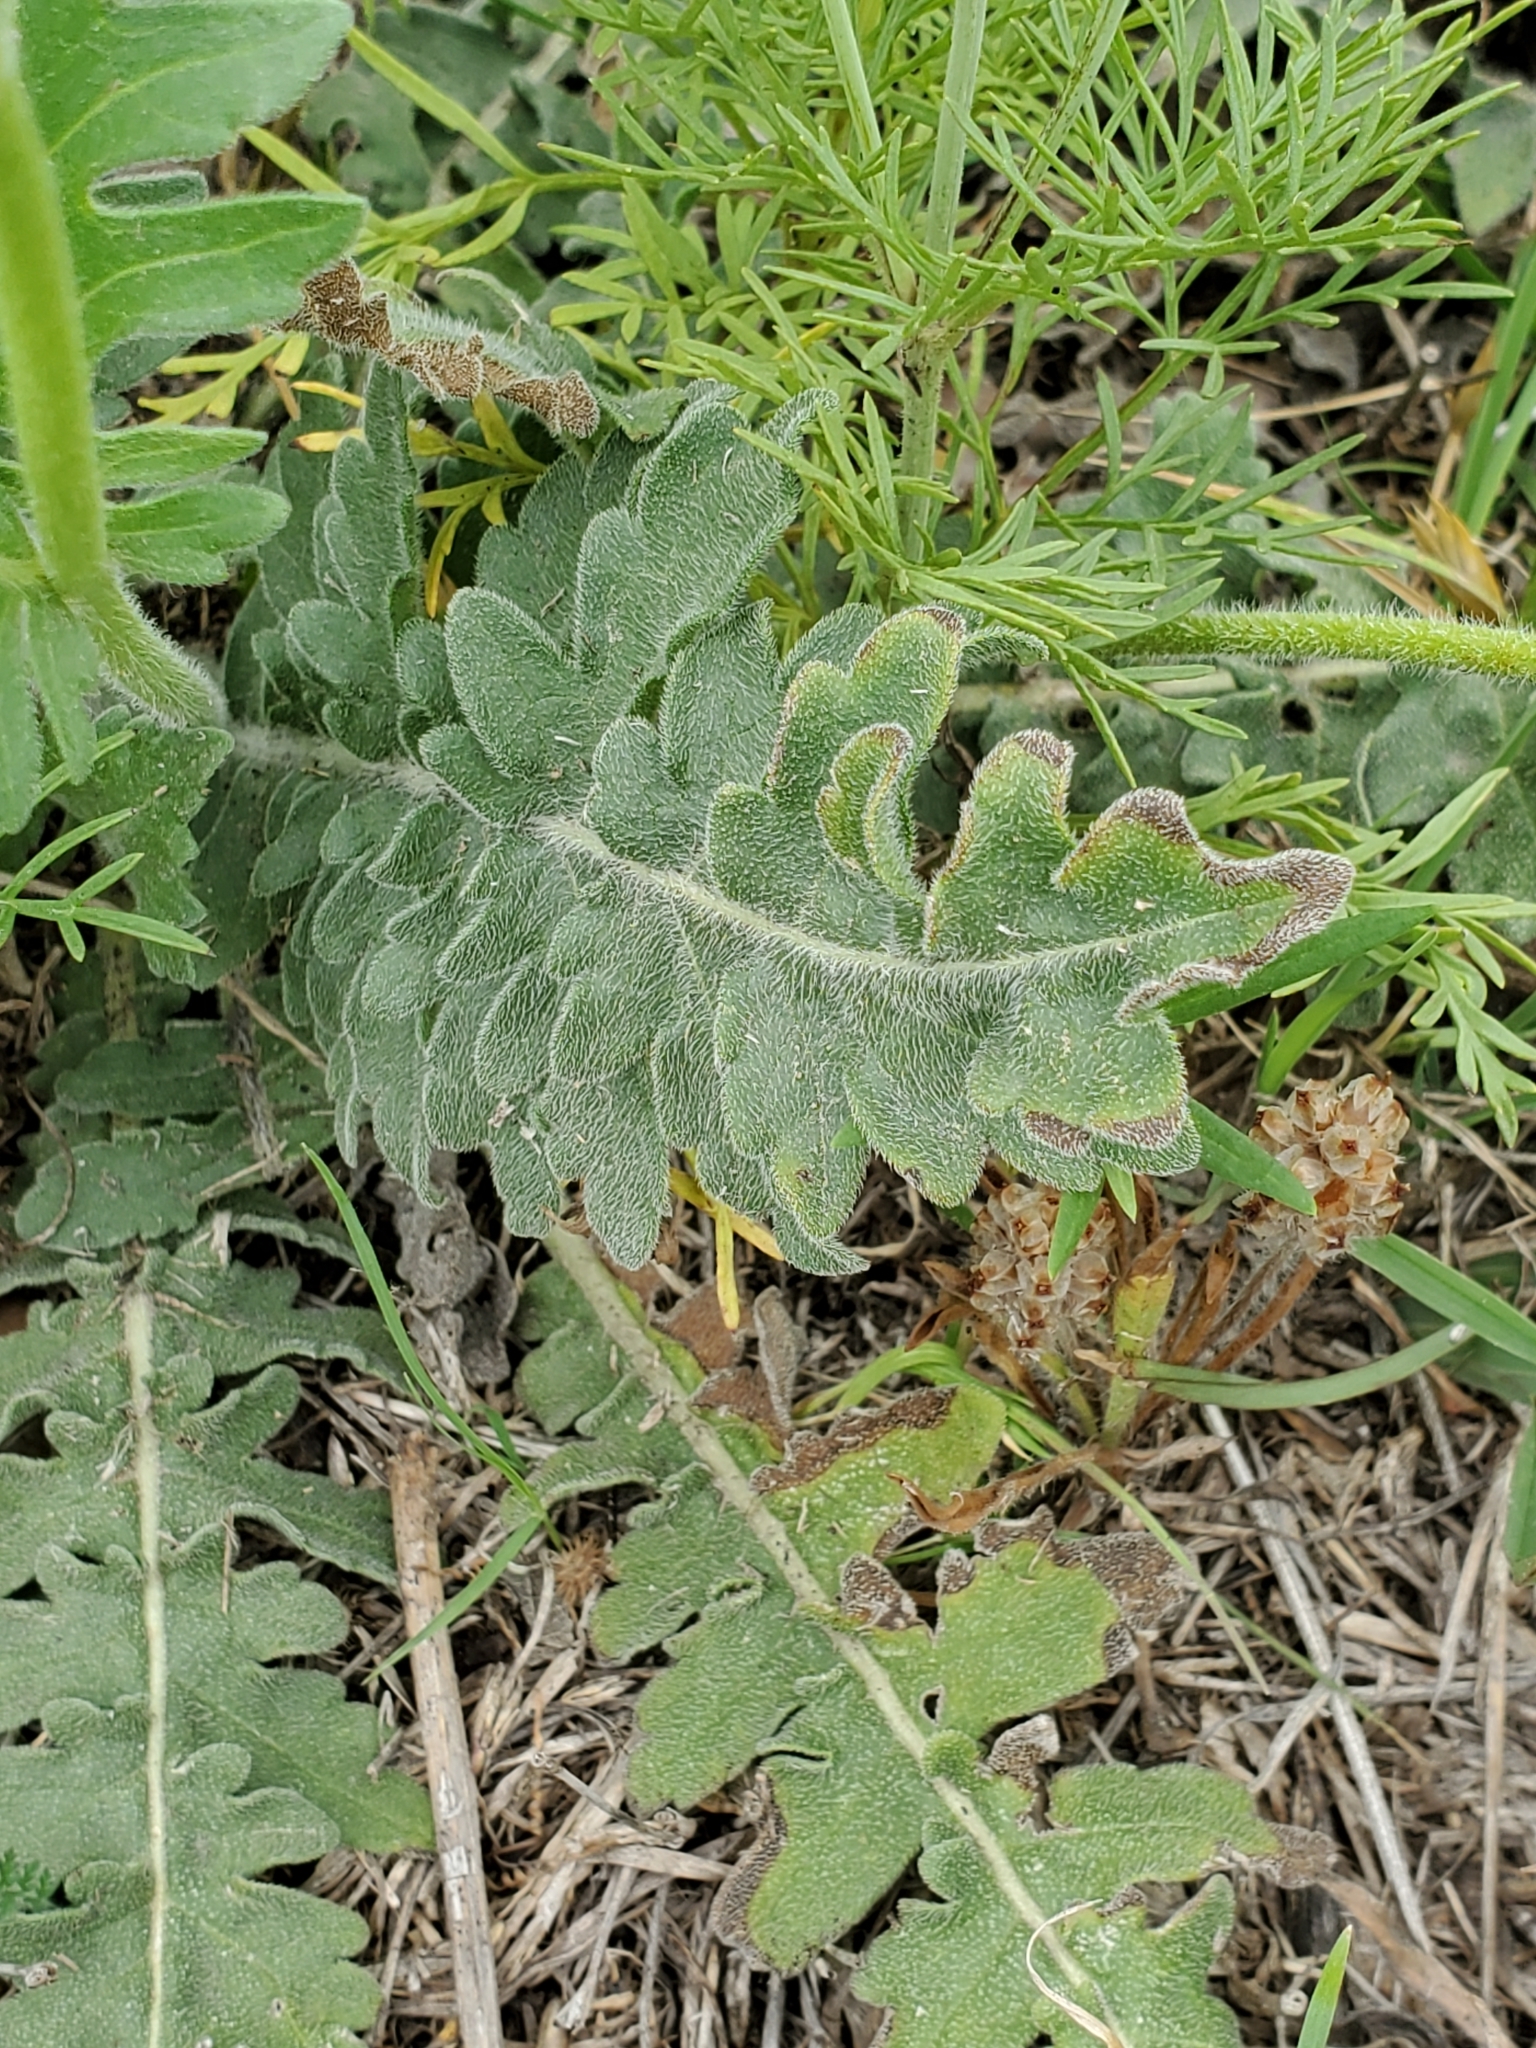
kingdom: Plantae
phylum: Tracheophyta
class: Magnoliopsida
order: Asterales
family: Asteraceae
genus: Engelmannia
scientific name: Engelmannia peristenia
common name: Engelmann's daisy
